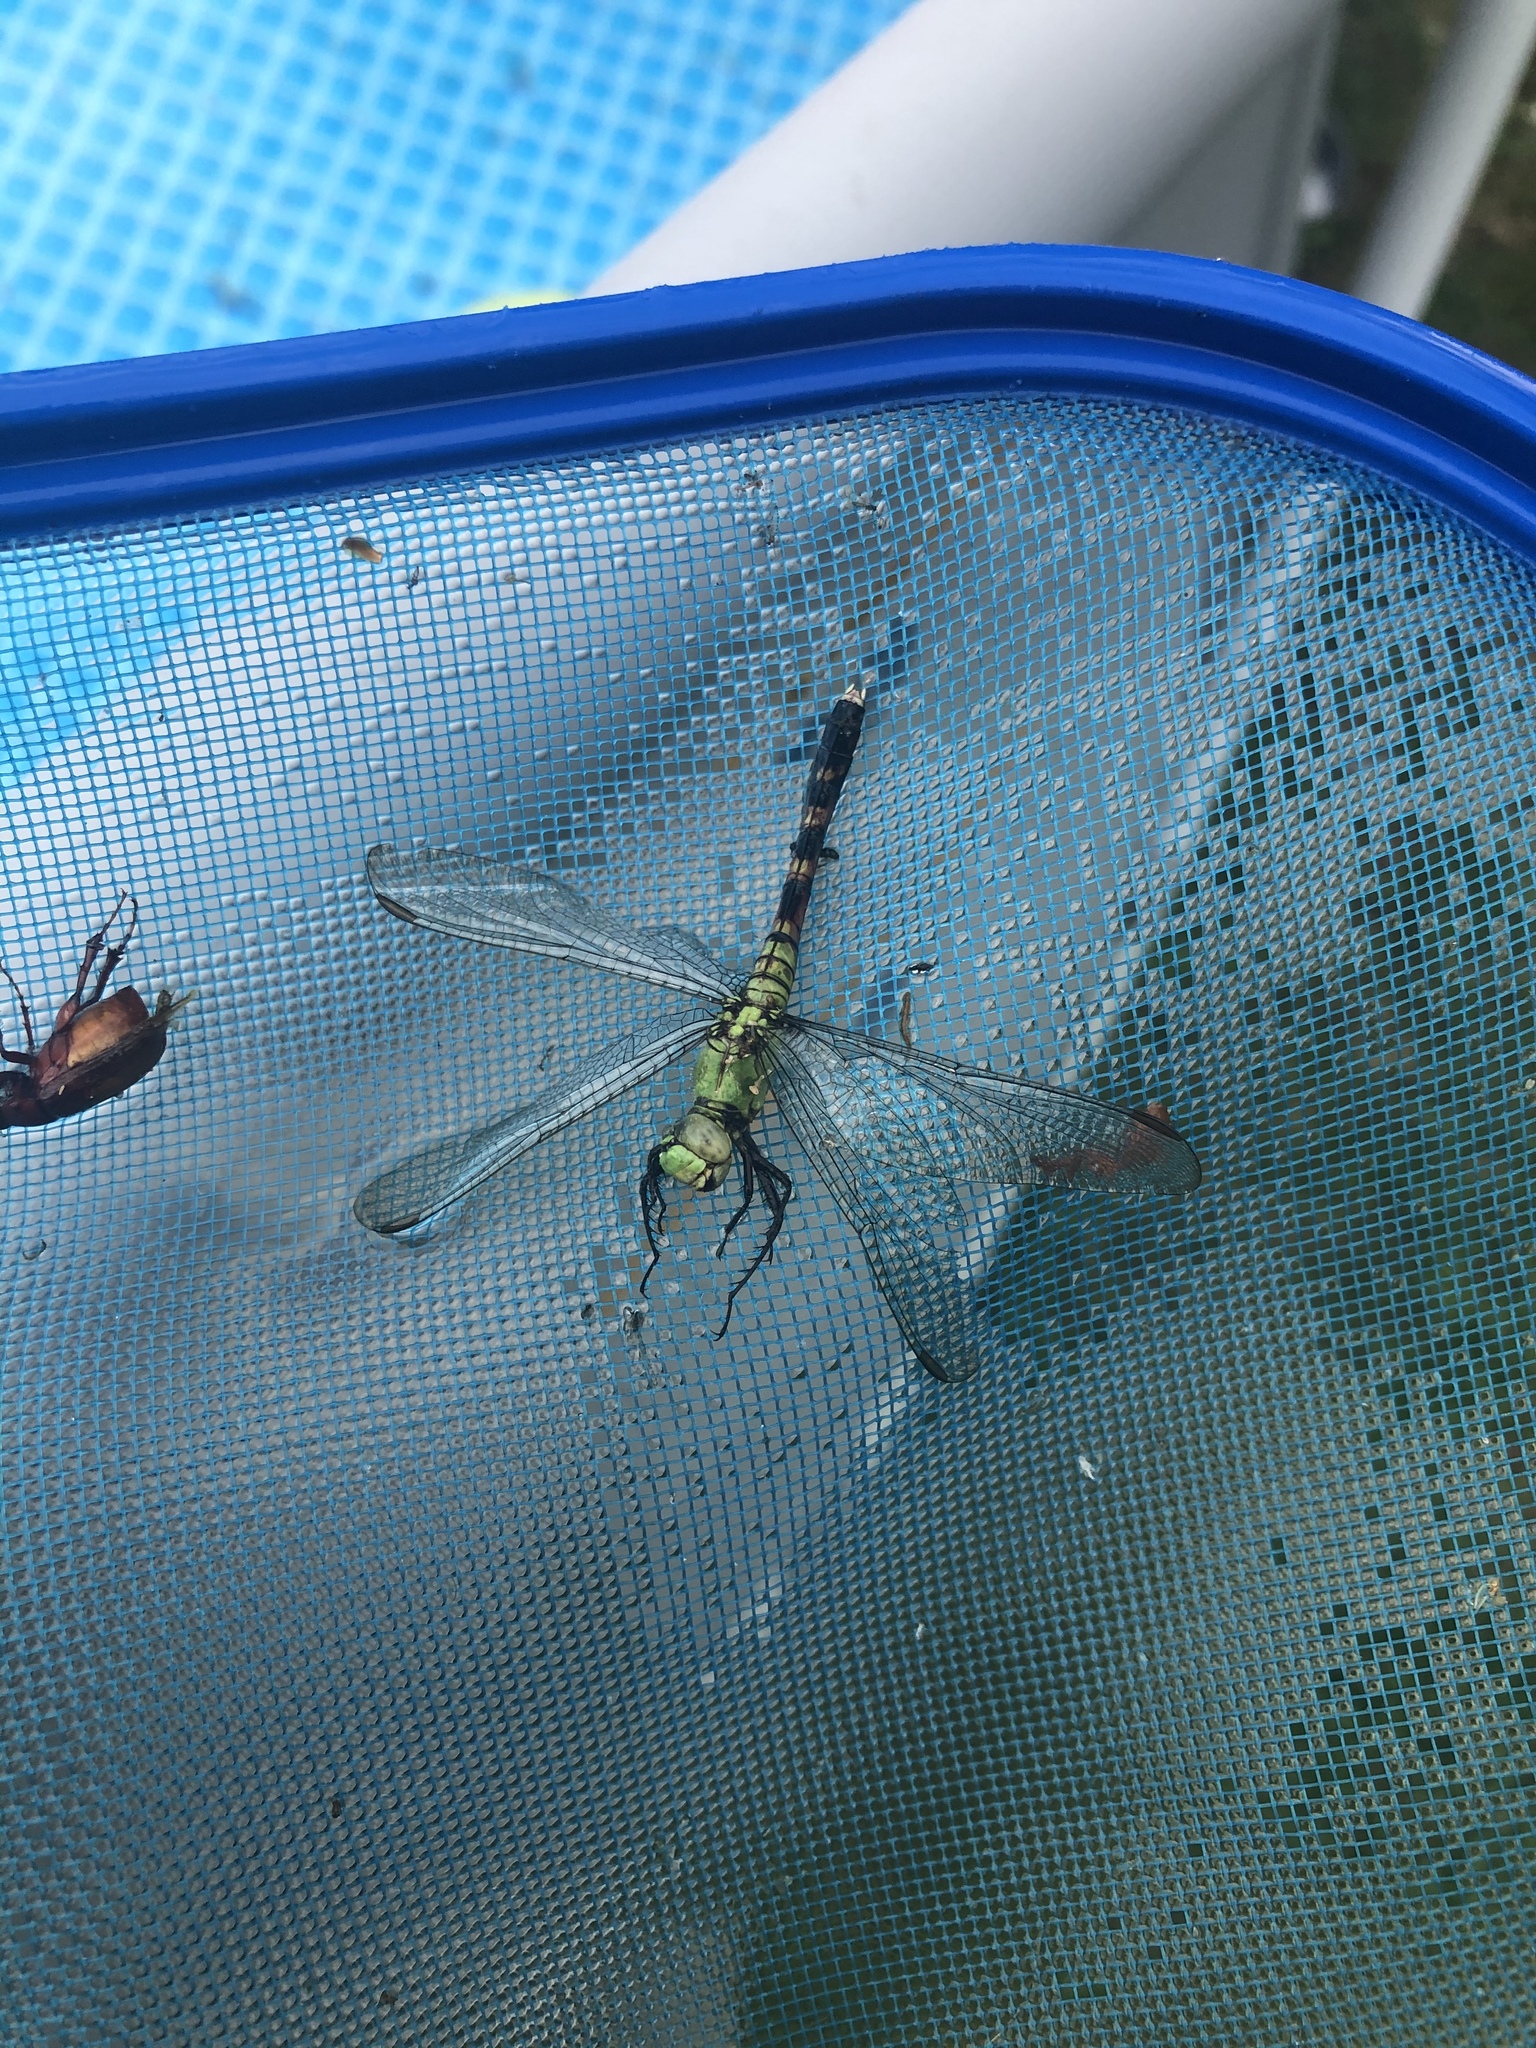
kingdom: Animalia
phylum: Arthropoda
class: Insecta
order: Odonata
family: Libellulidae
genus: Erythemis
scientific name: Erythemis simplicicollis
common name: Eastern pondhawk
